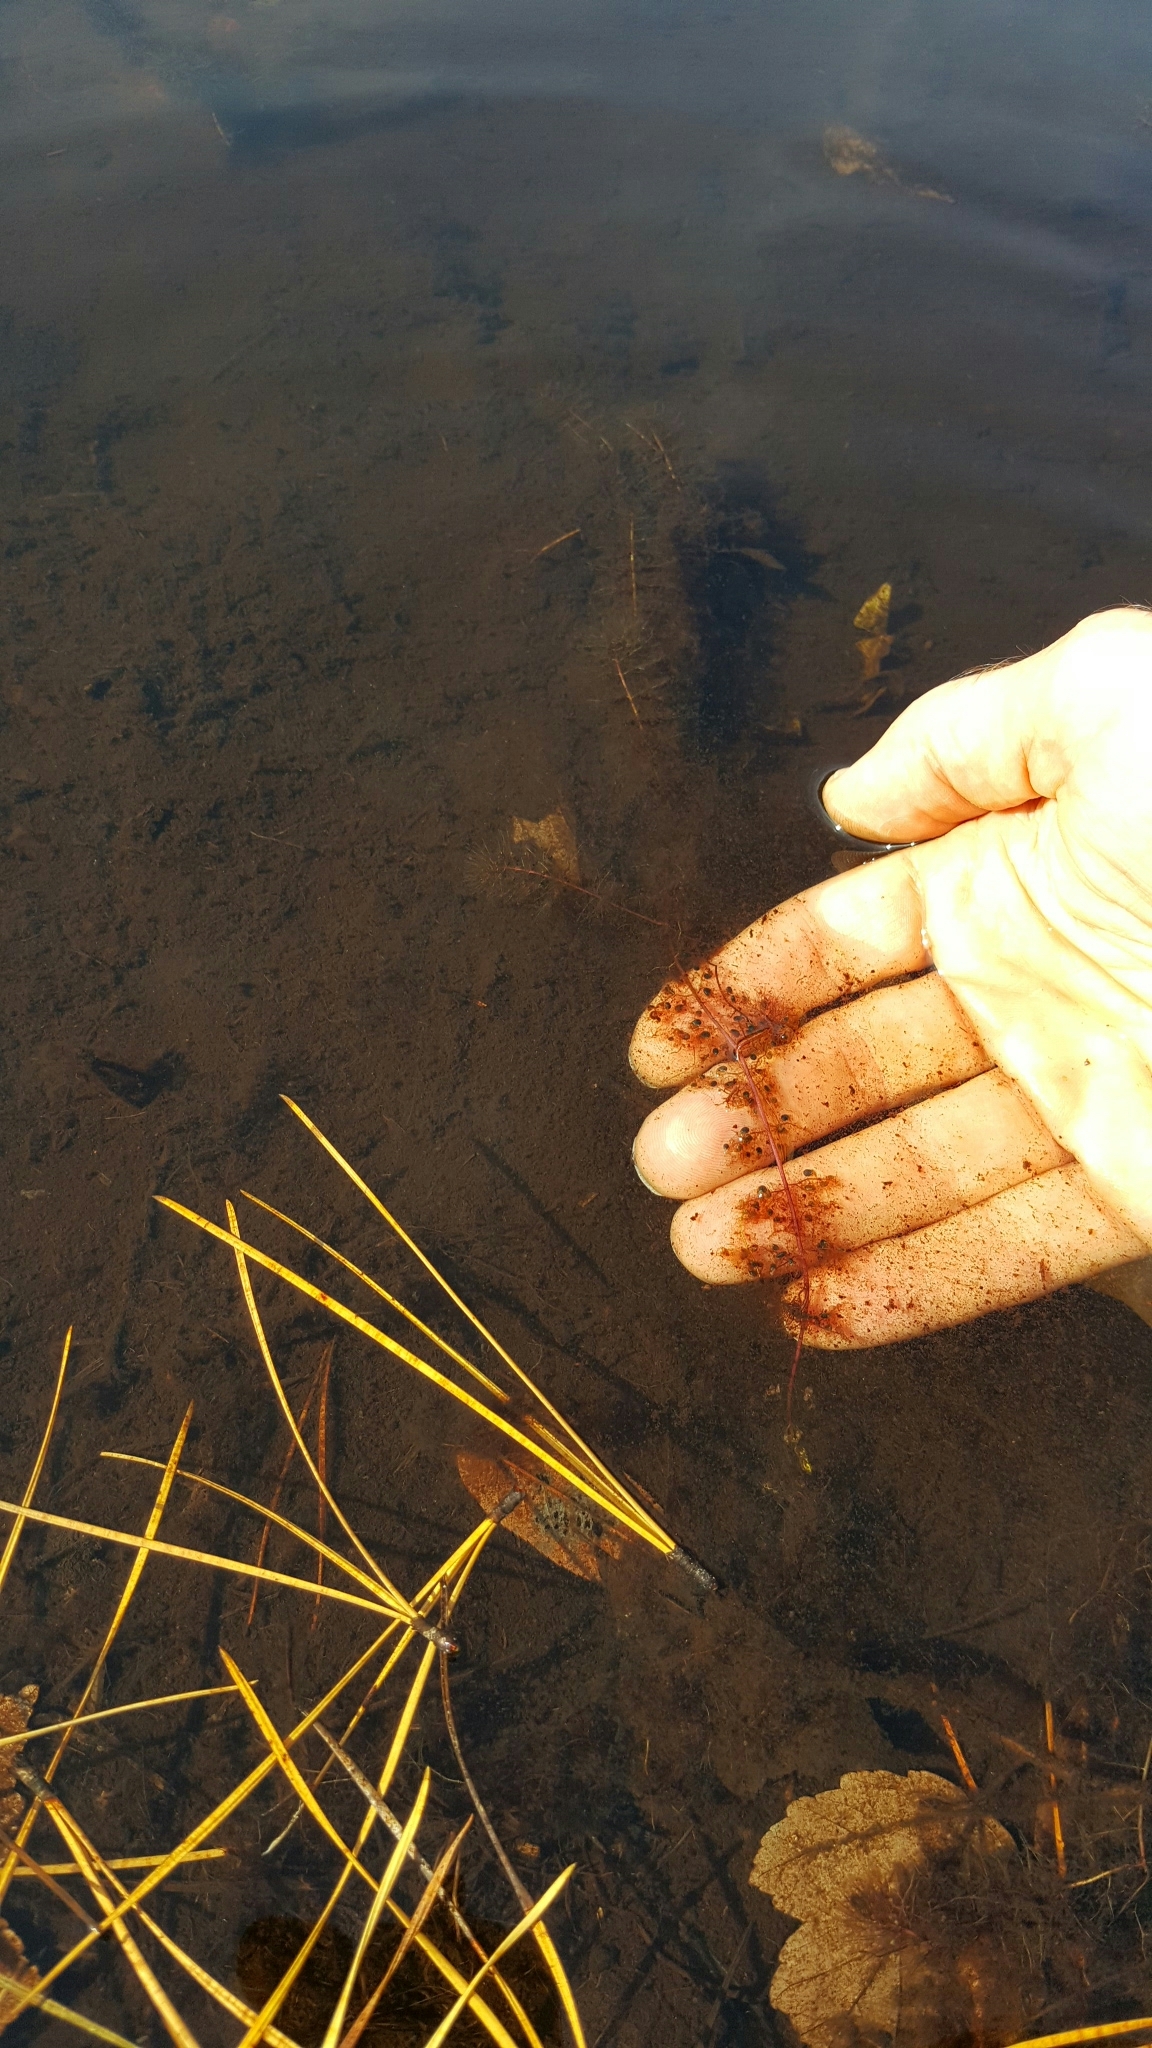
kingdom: Plantae
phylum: Tracheophyta
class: Magnoliopsida
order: Lamiales
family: Lentibulariaceae
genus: Utricularia
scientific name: Utricularia striata
